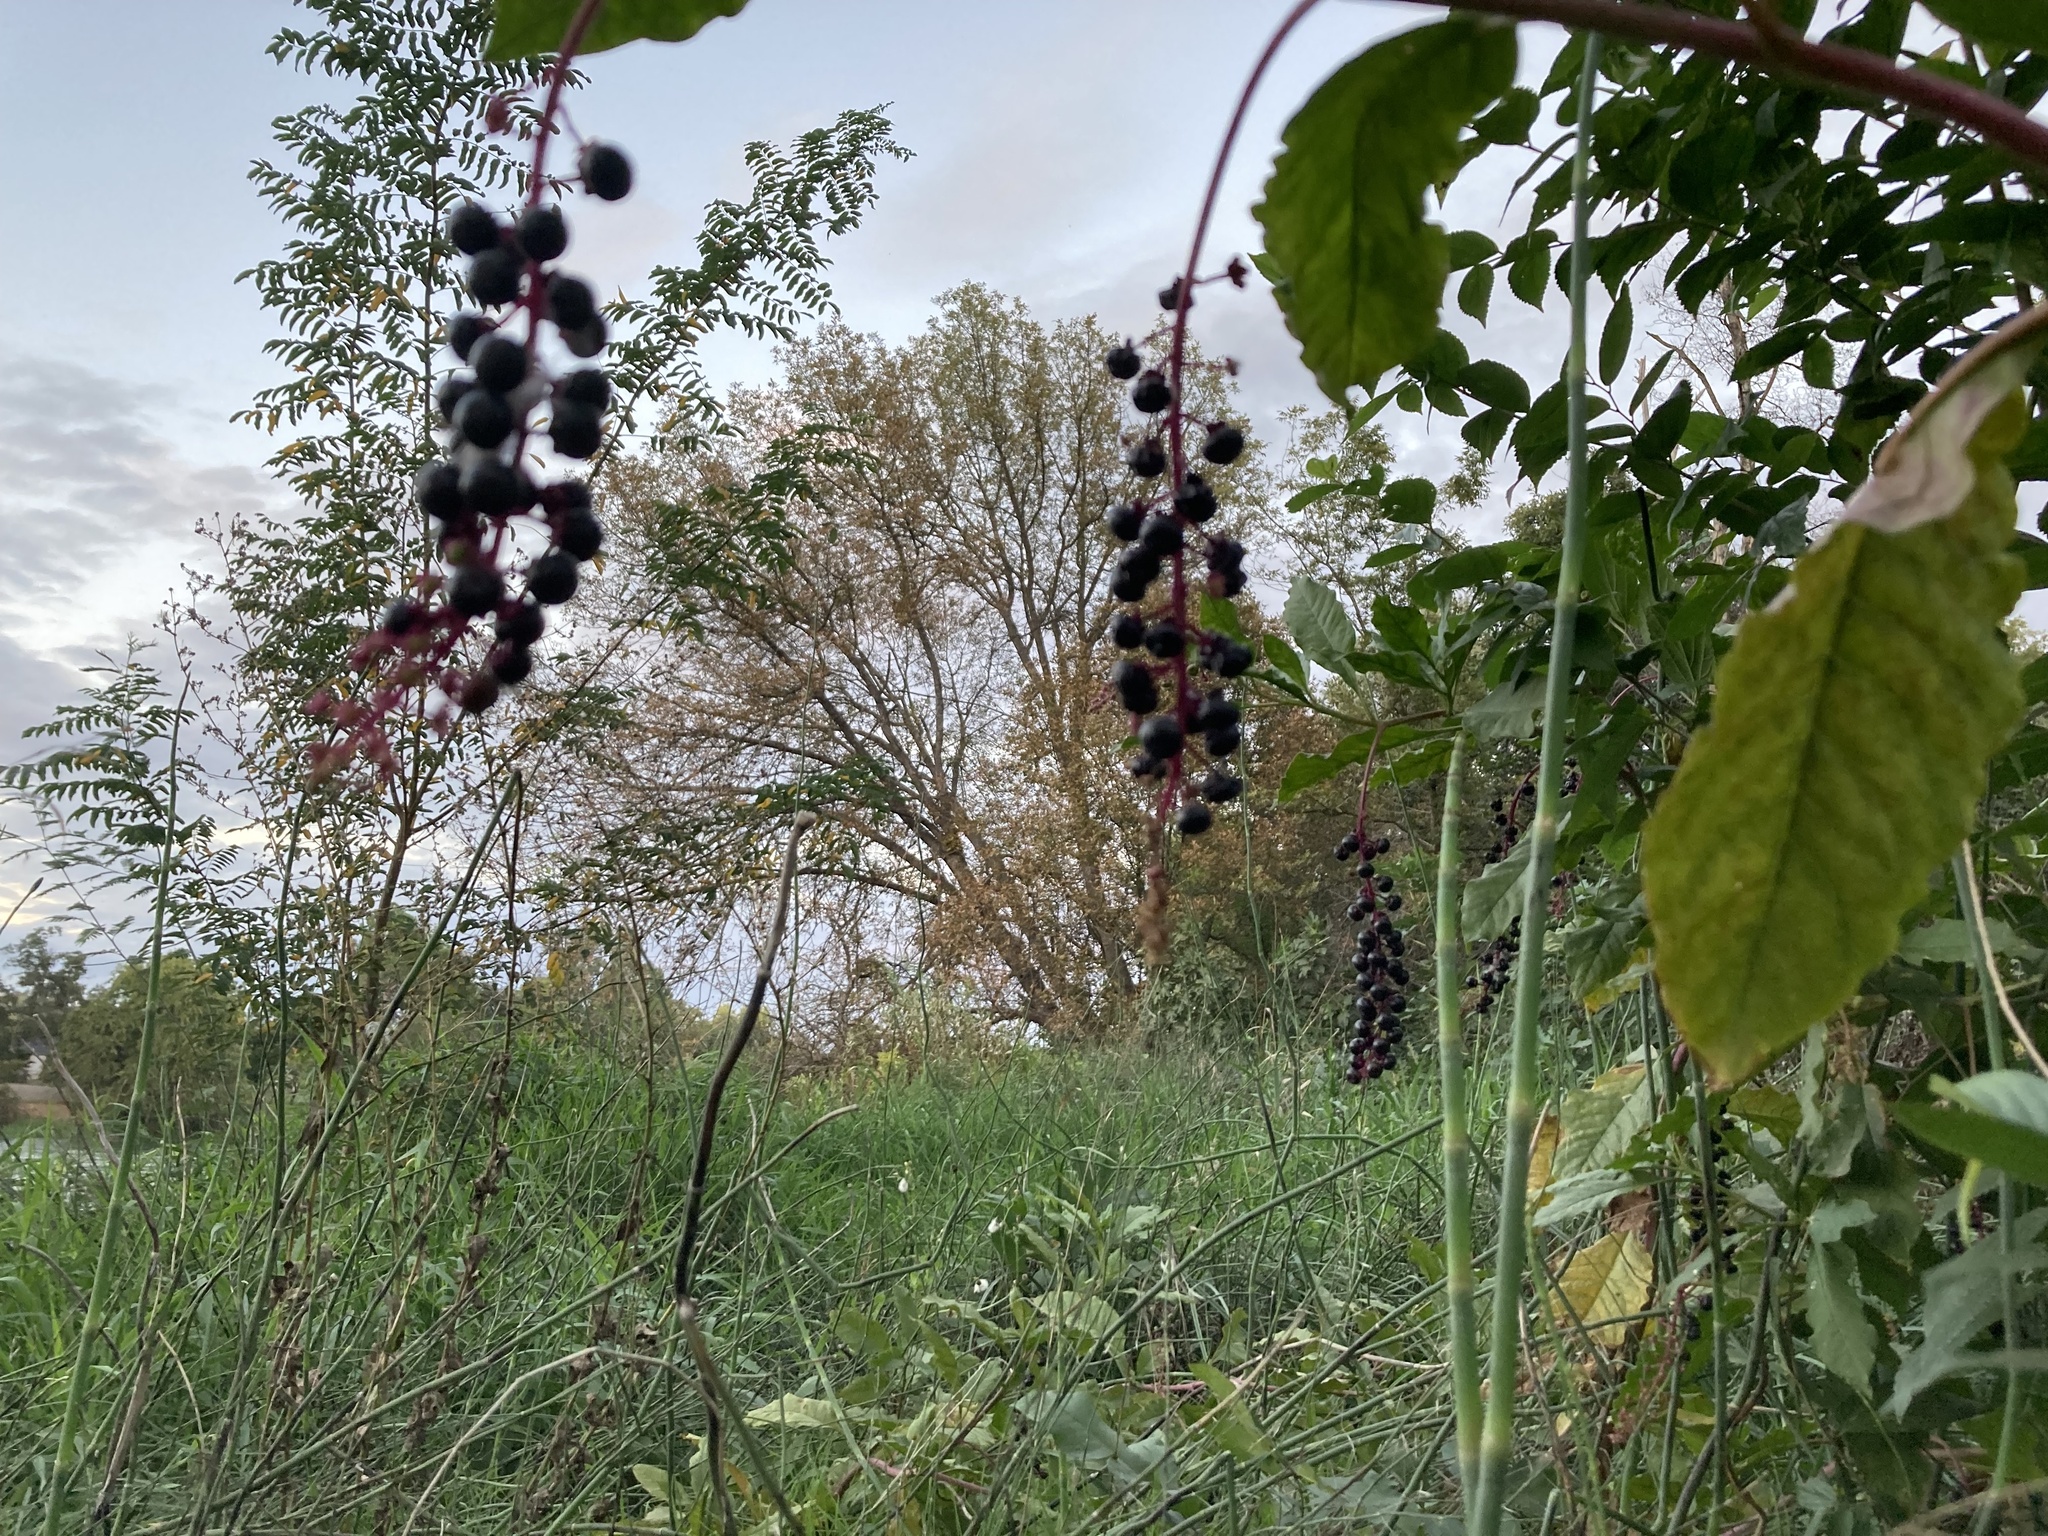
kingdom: Plantae
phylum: Tracheophyta
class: Magnoliopsida
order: Caryophyllales
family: Phytolaccaceae
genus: Phytolacca
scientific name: Phytolacca americana
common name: American pokeweed
